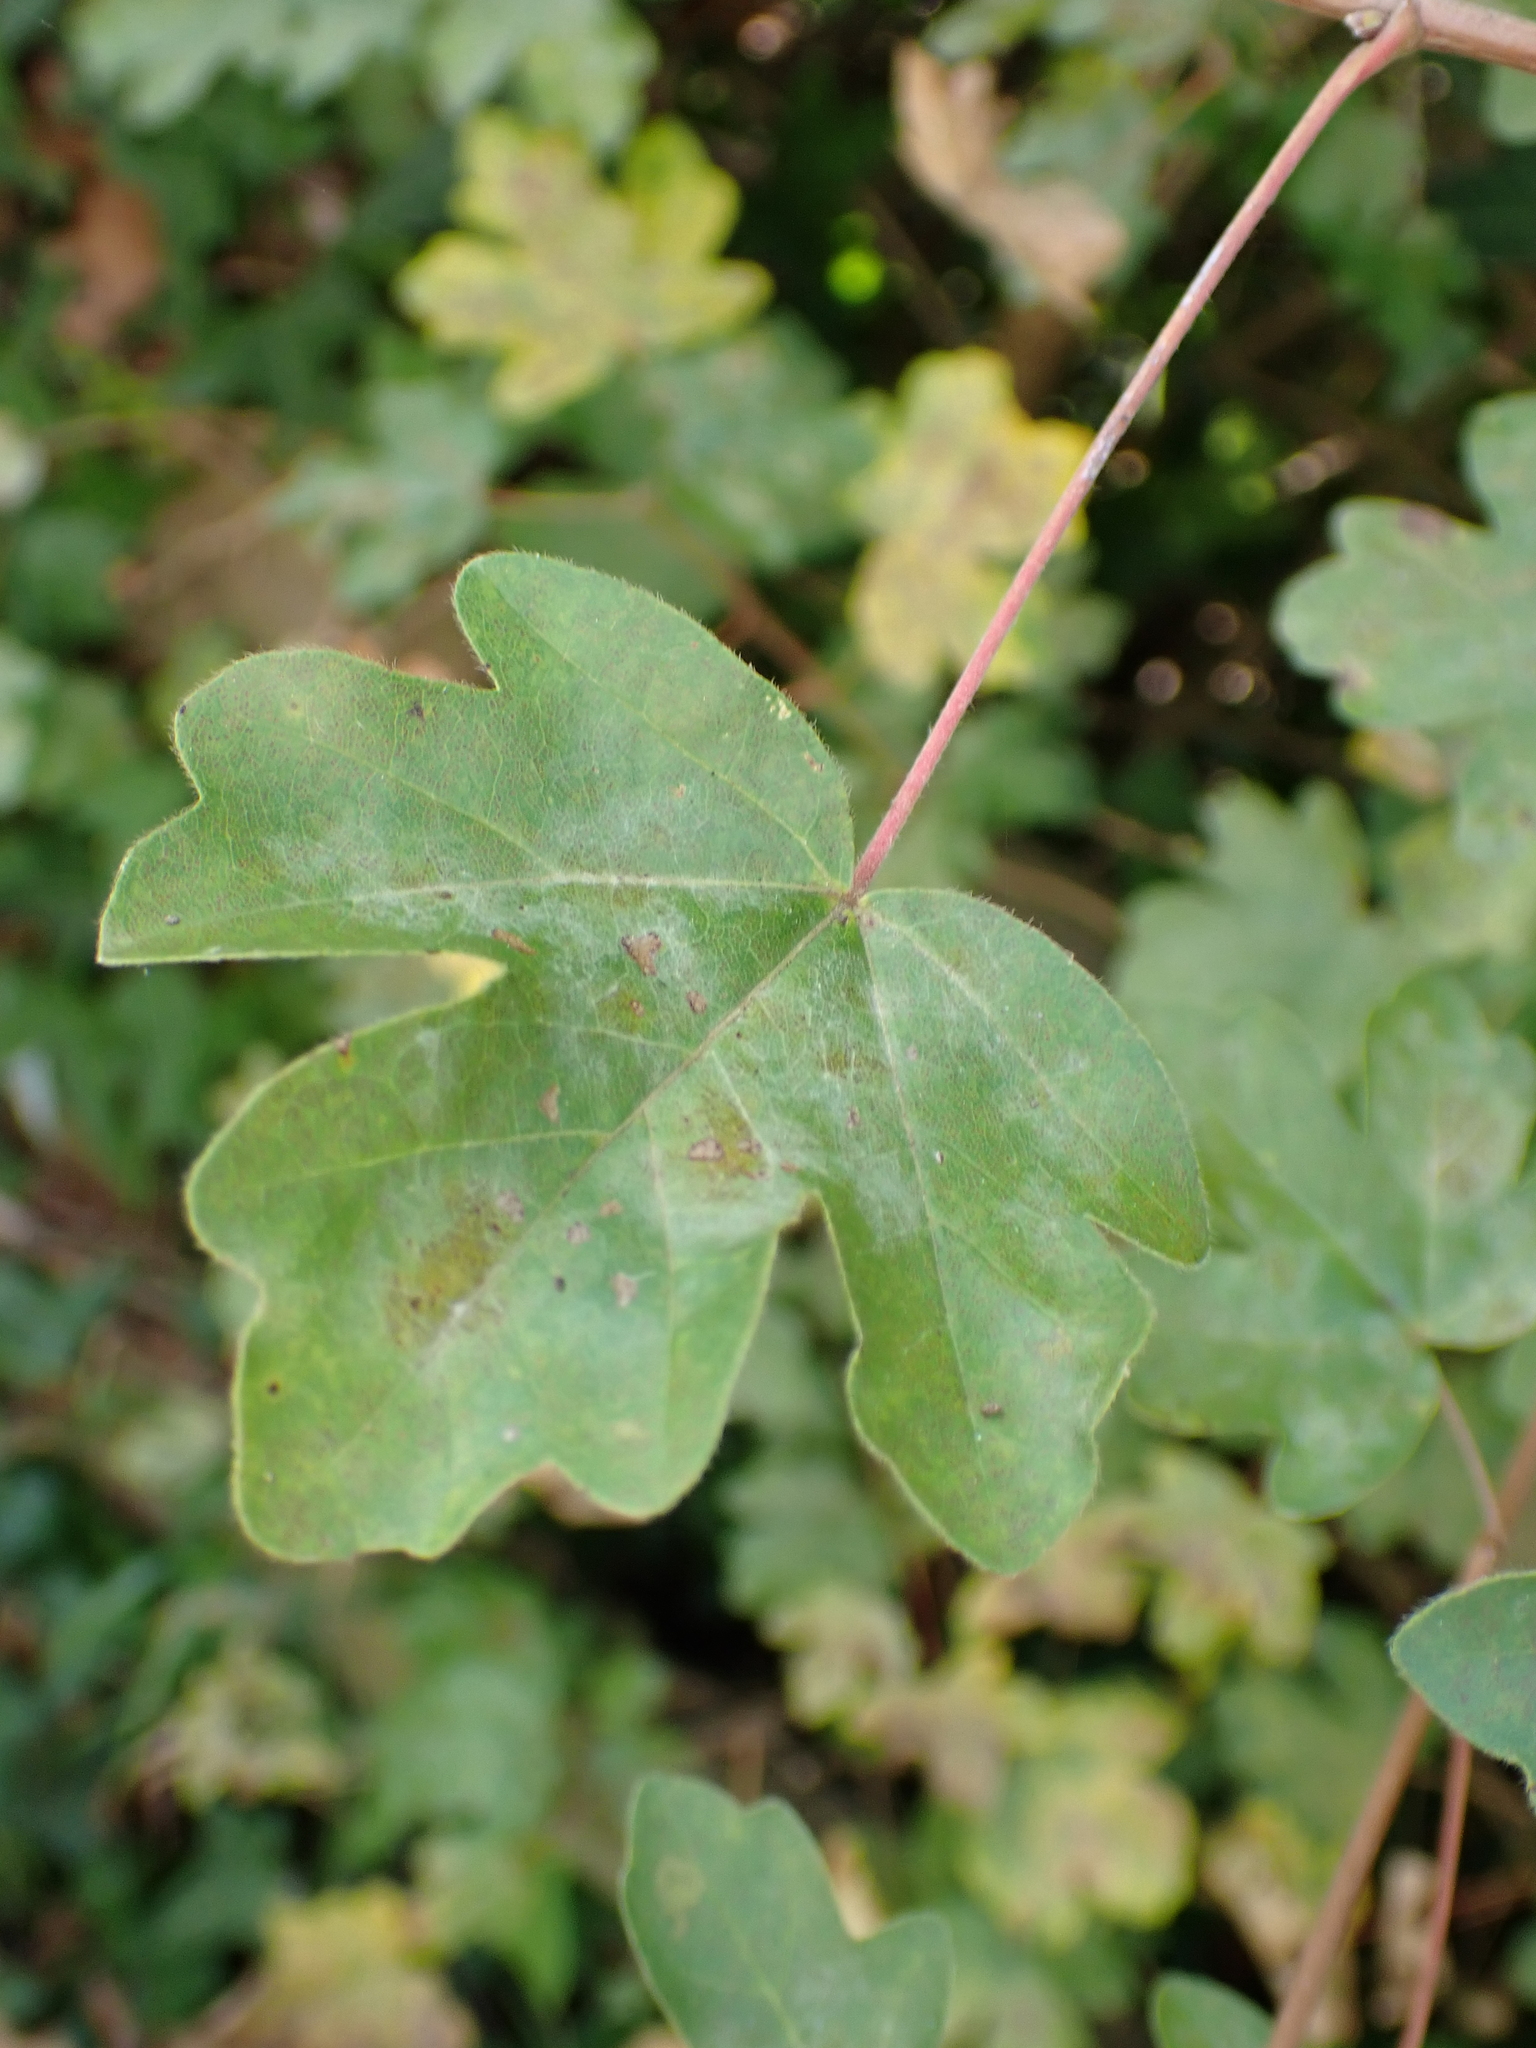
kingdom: Plantae
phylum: Tracheophyta
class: Magnoliopsida
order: Sapindales
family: Sapindaceae
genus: Acer
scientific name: Acer campestre
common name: Field maple
